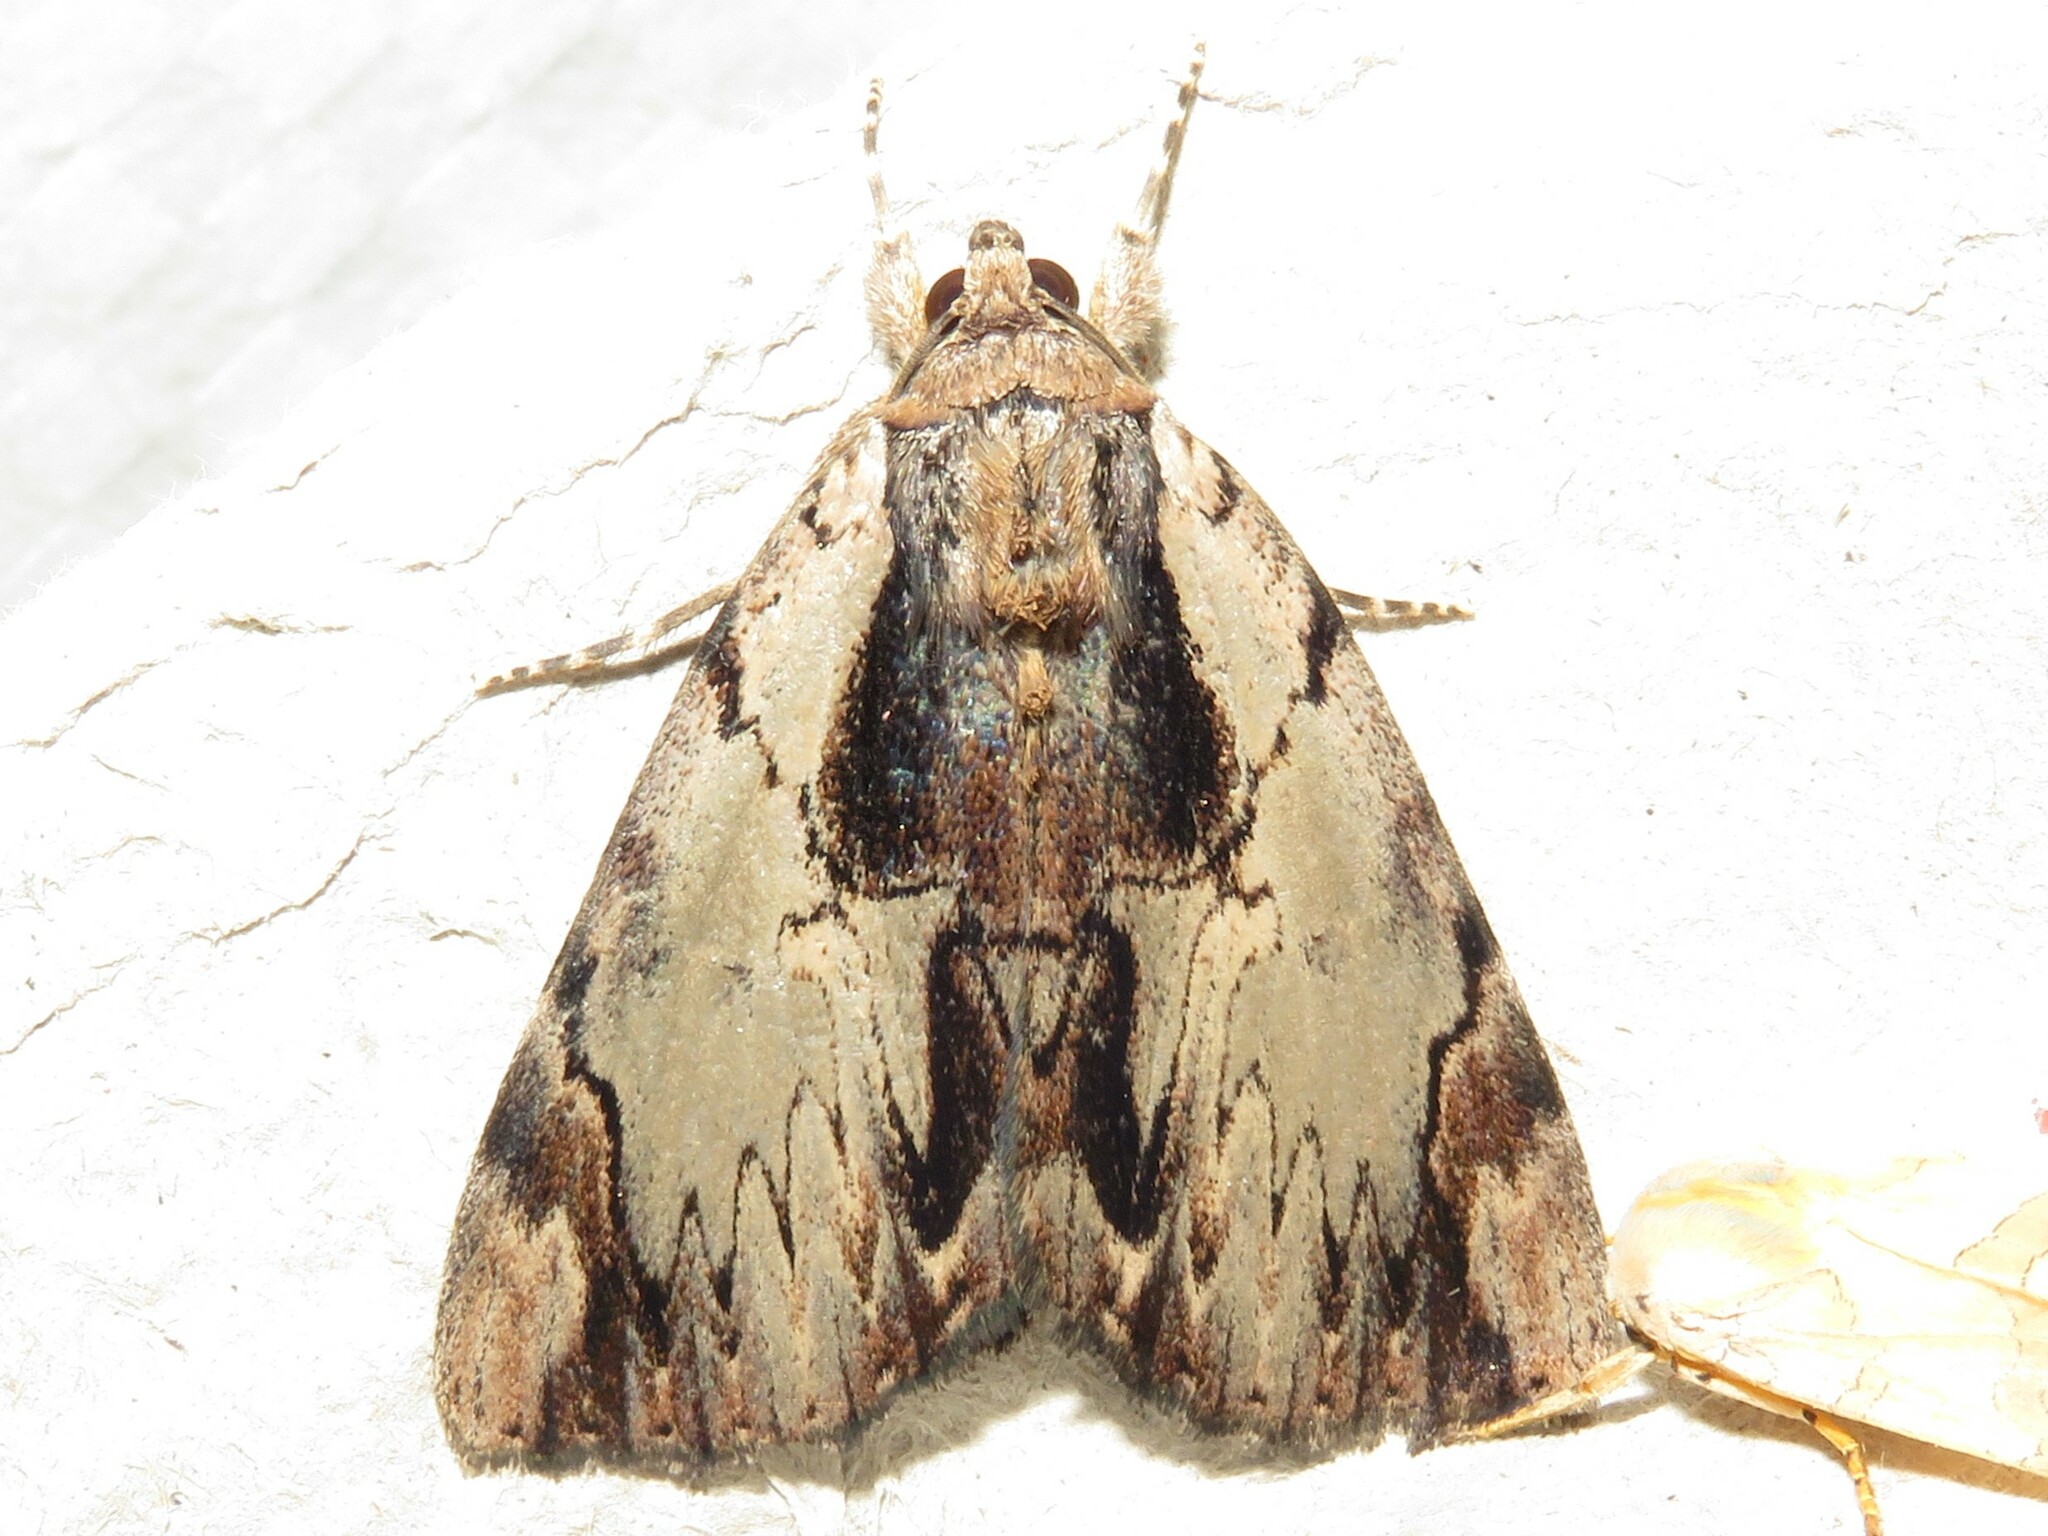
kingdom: Animalia
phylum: Arthropoda
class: Insecta
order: Lepidoptera
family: Erebidae
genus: Catocala
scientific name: Catocala ultronia
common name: Ultronia underwing
